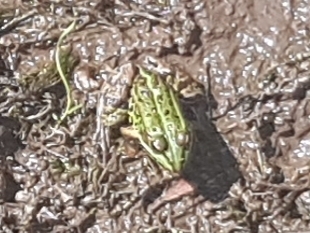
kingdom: Animalia
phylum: Chordata
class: Amphibia
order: Anura
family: Ranidae
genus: Pelophylax
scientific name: Pelophylax
